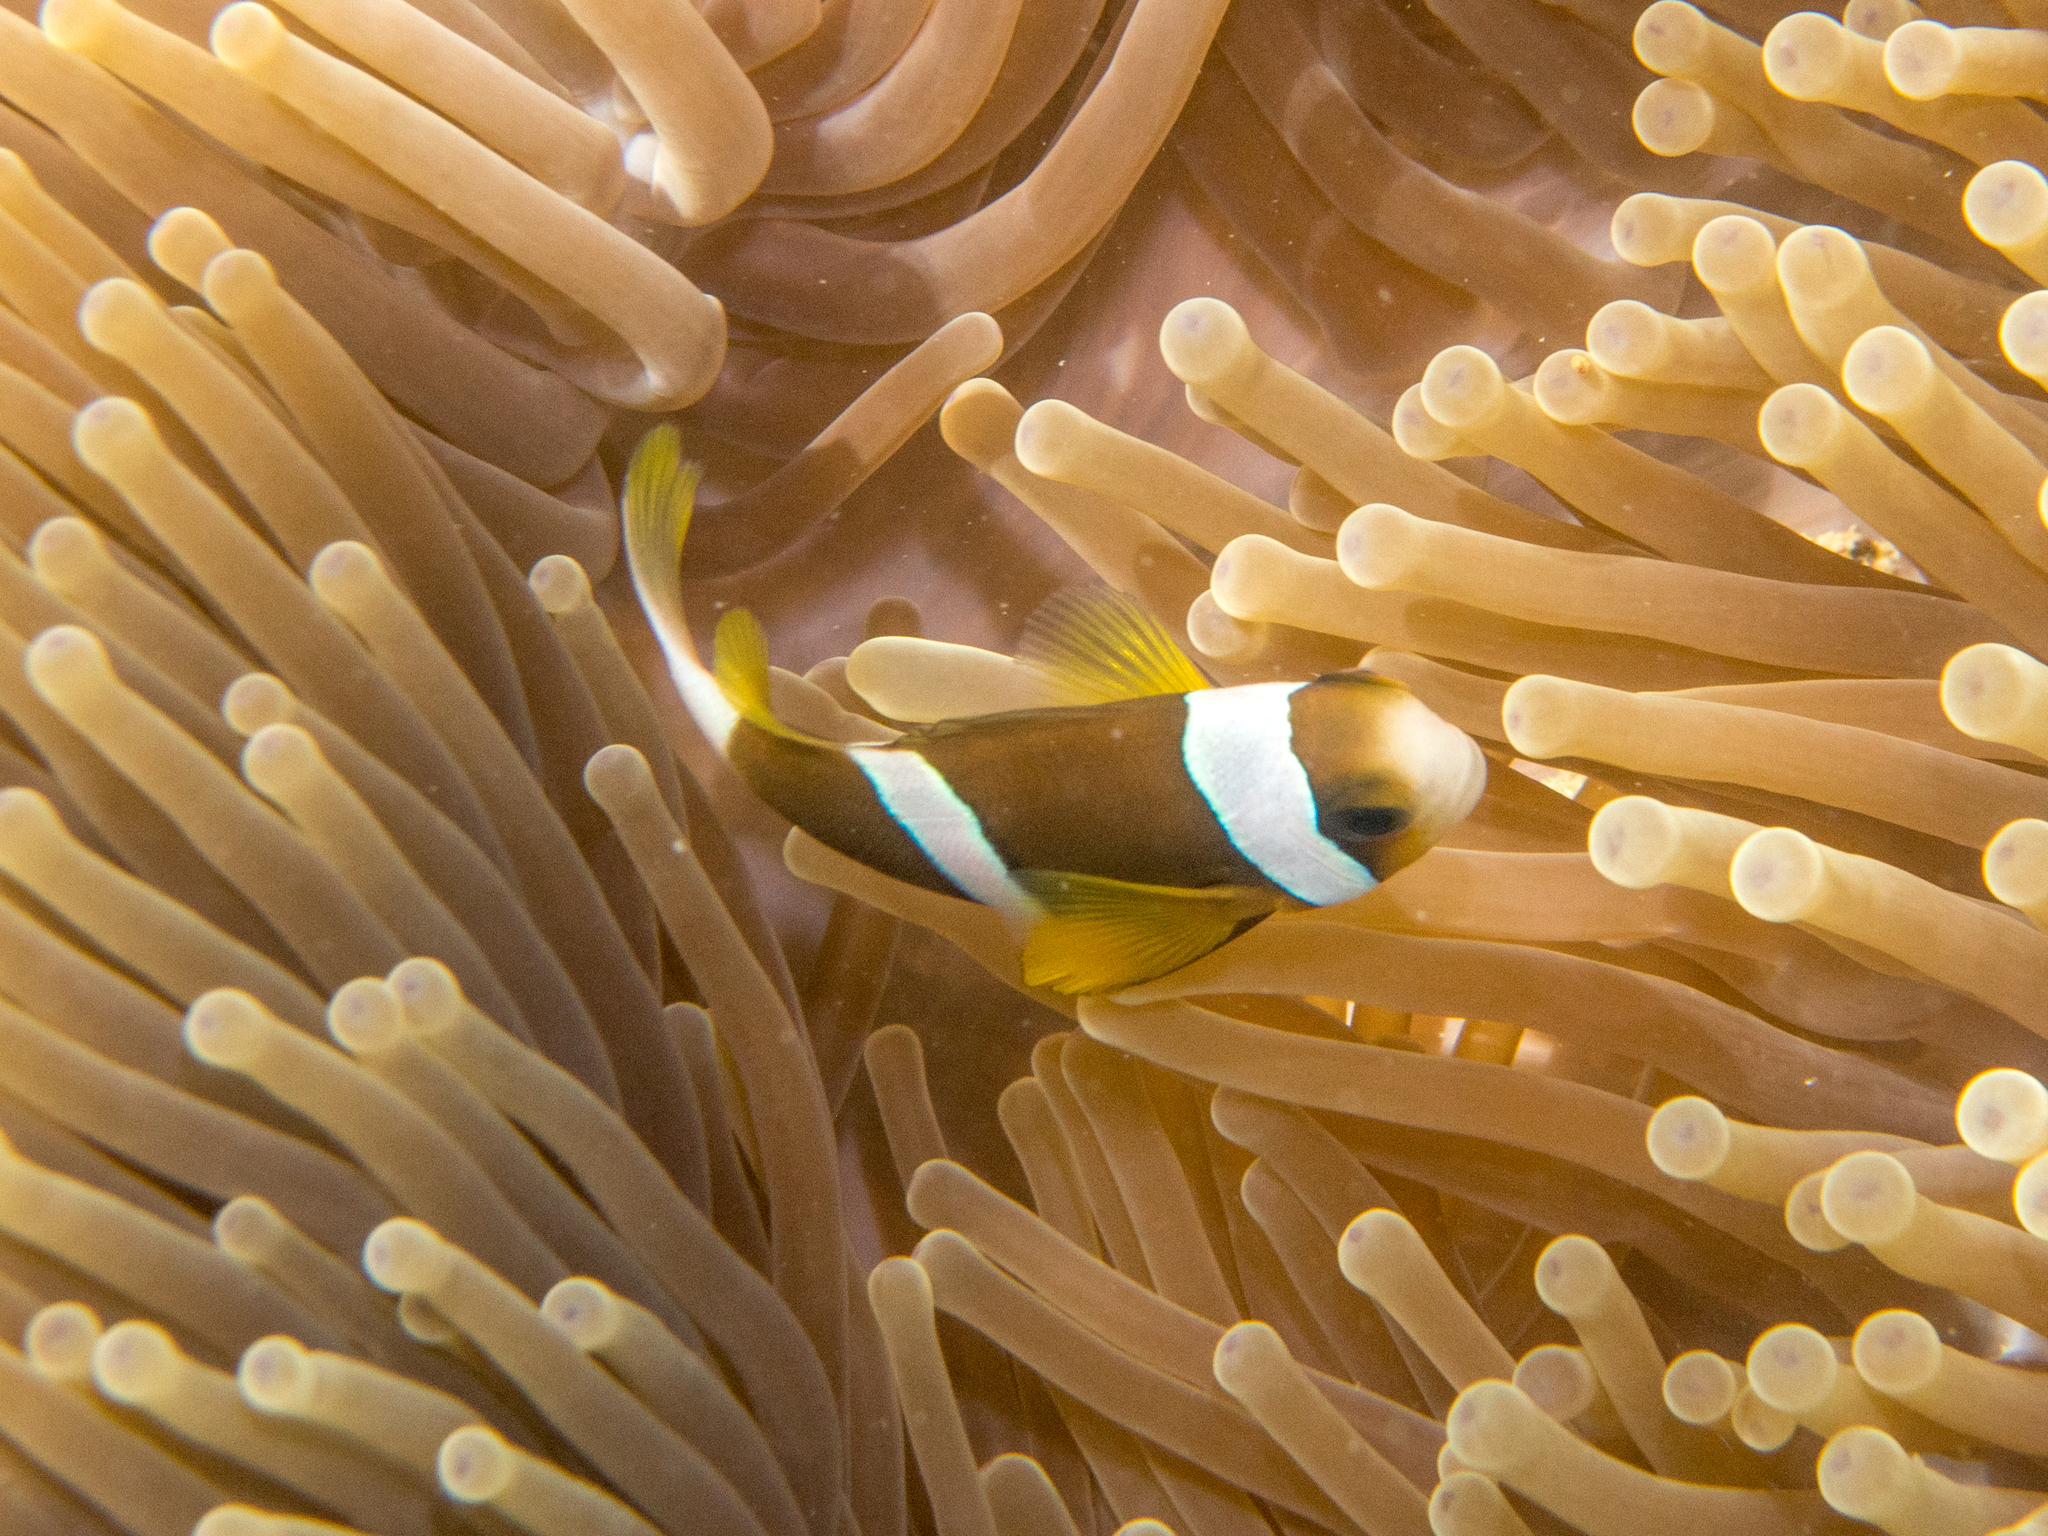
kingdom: Animalia
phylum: Chordata
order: Perciformes
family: Pomacentridae
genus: Amphiprion
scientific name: Amphiprion allardi
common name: Allard's anemonefish
